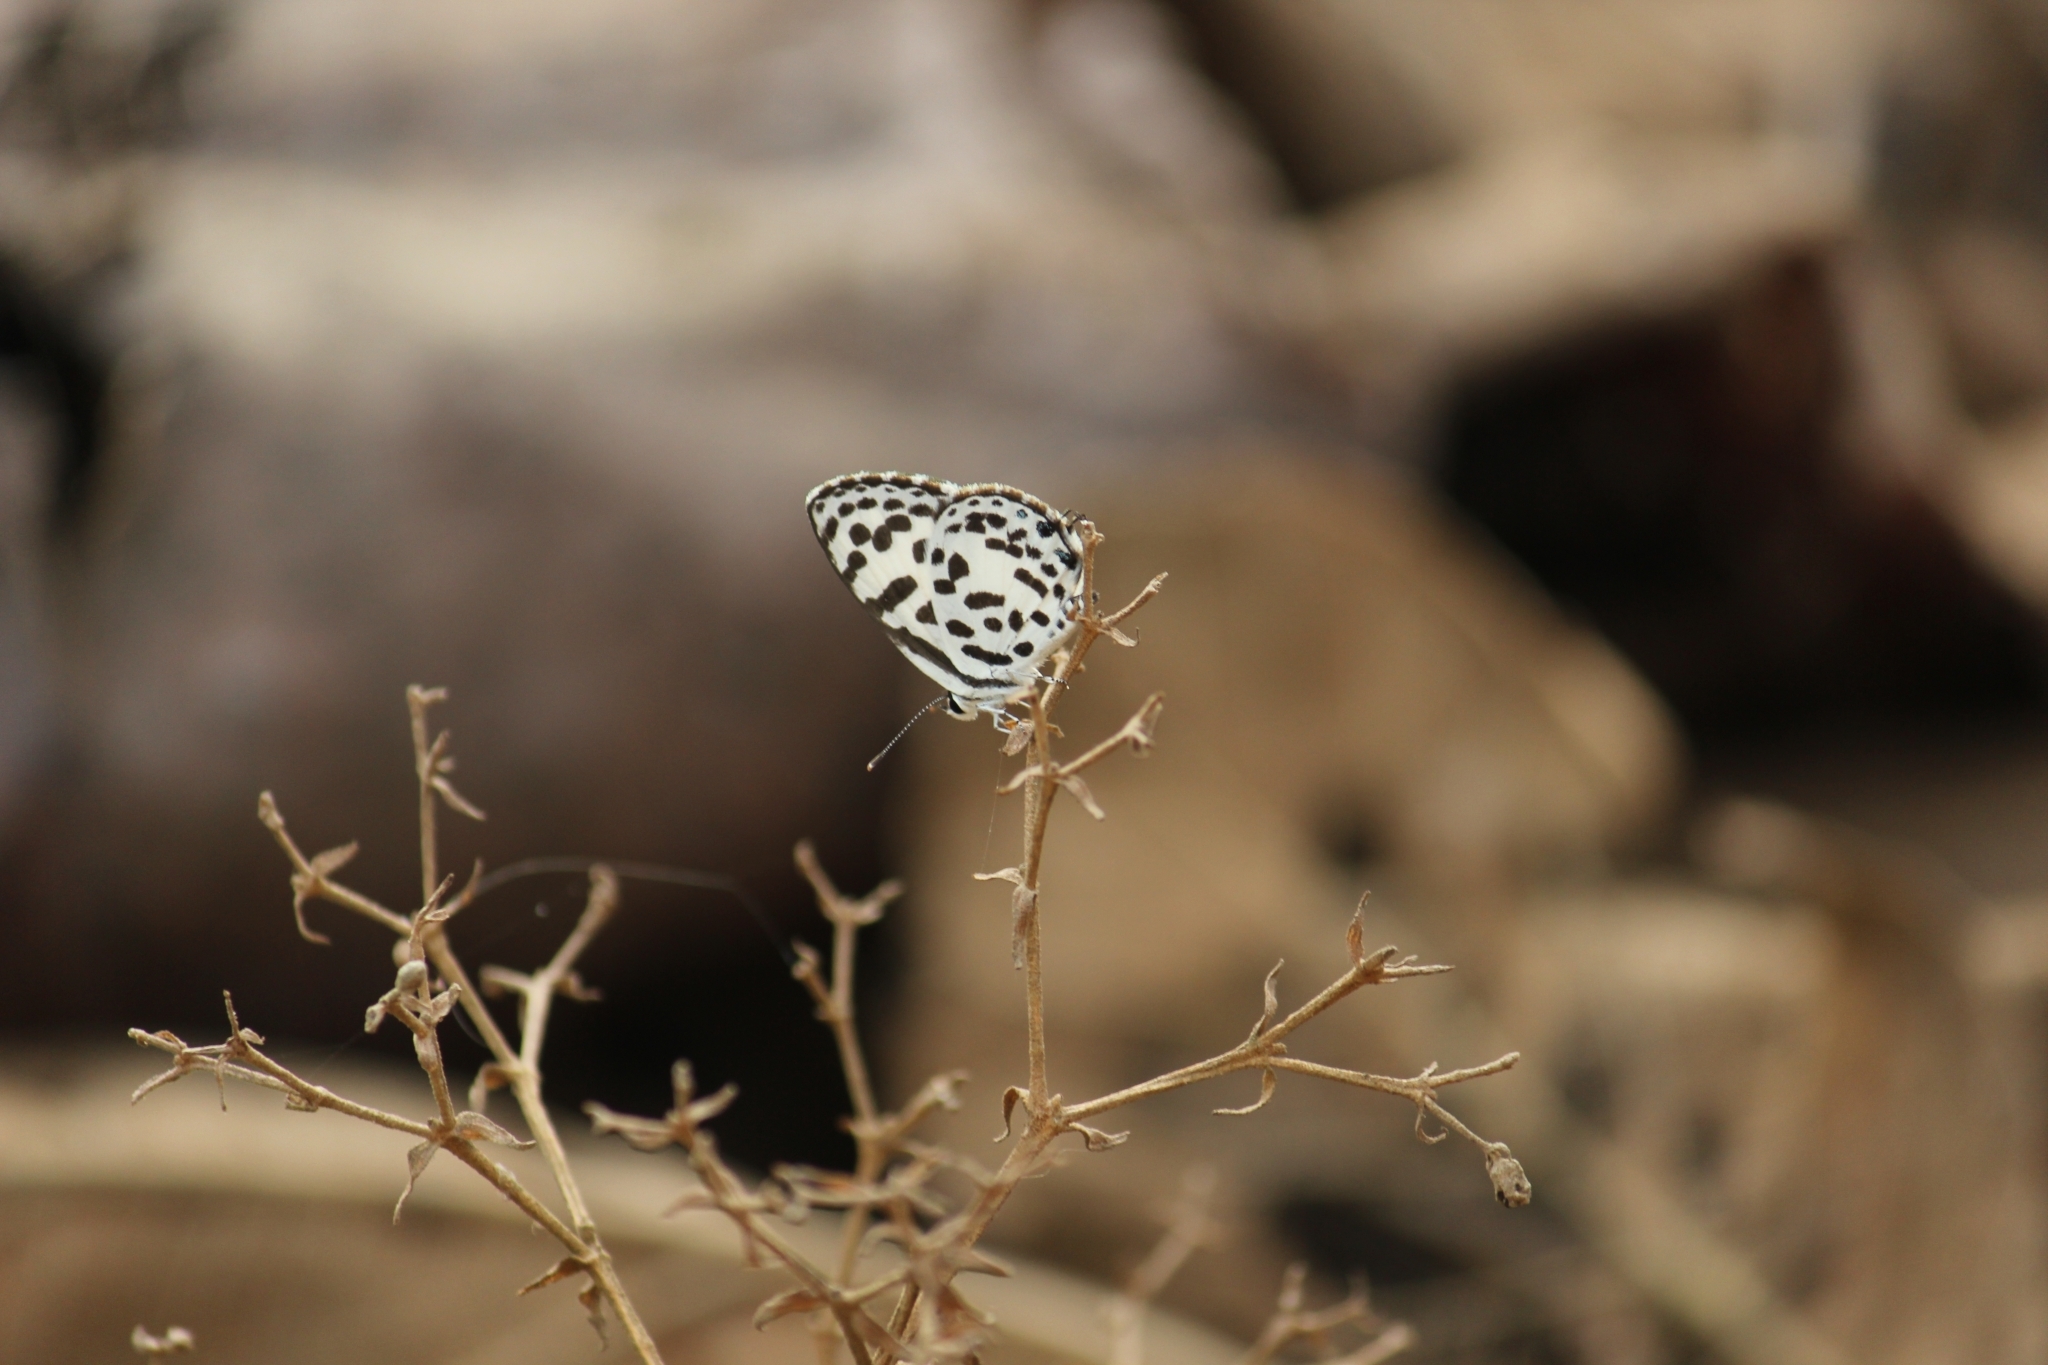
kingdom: Animalia
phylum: Arthropoda
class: Insecta
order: Lepidoptera
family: Lycaenidae
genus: Castalius
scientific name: Castalius rosimon
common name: Common pierrot
